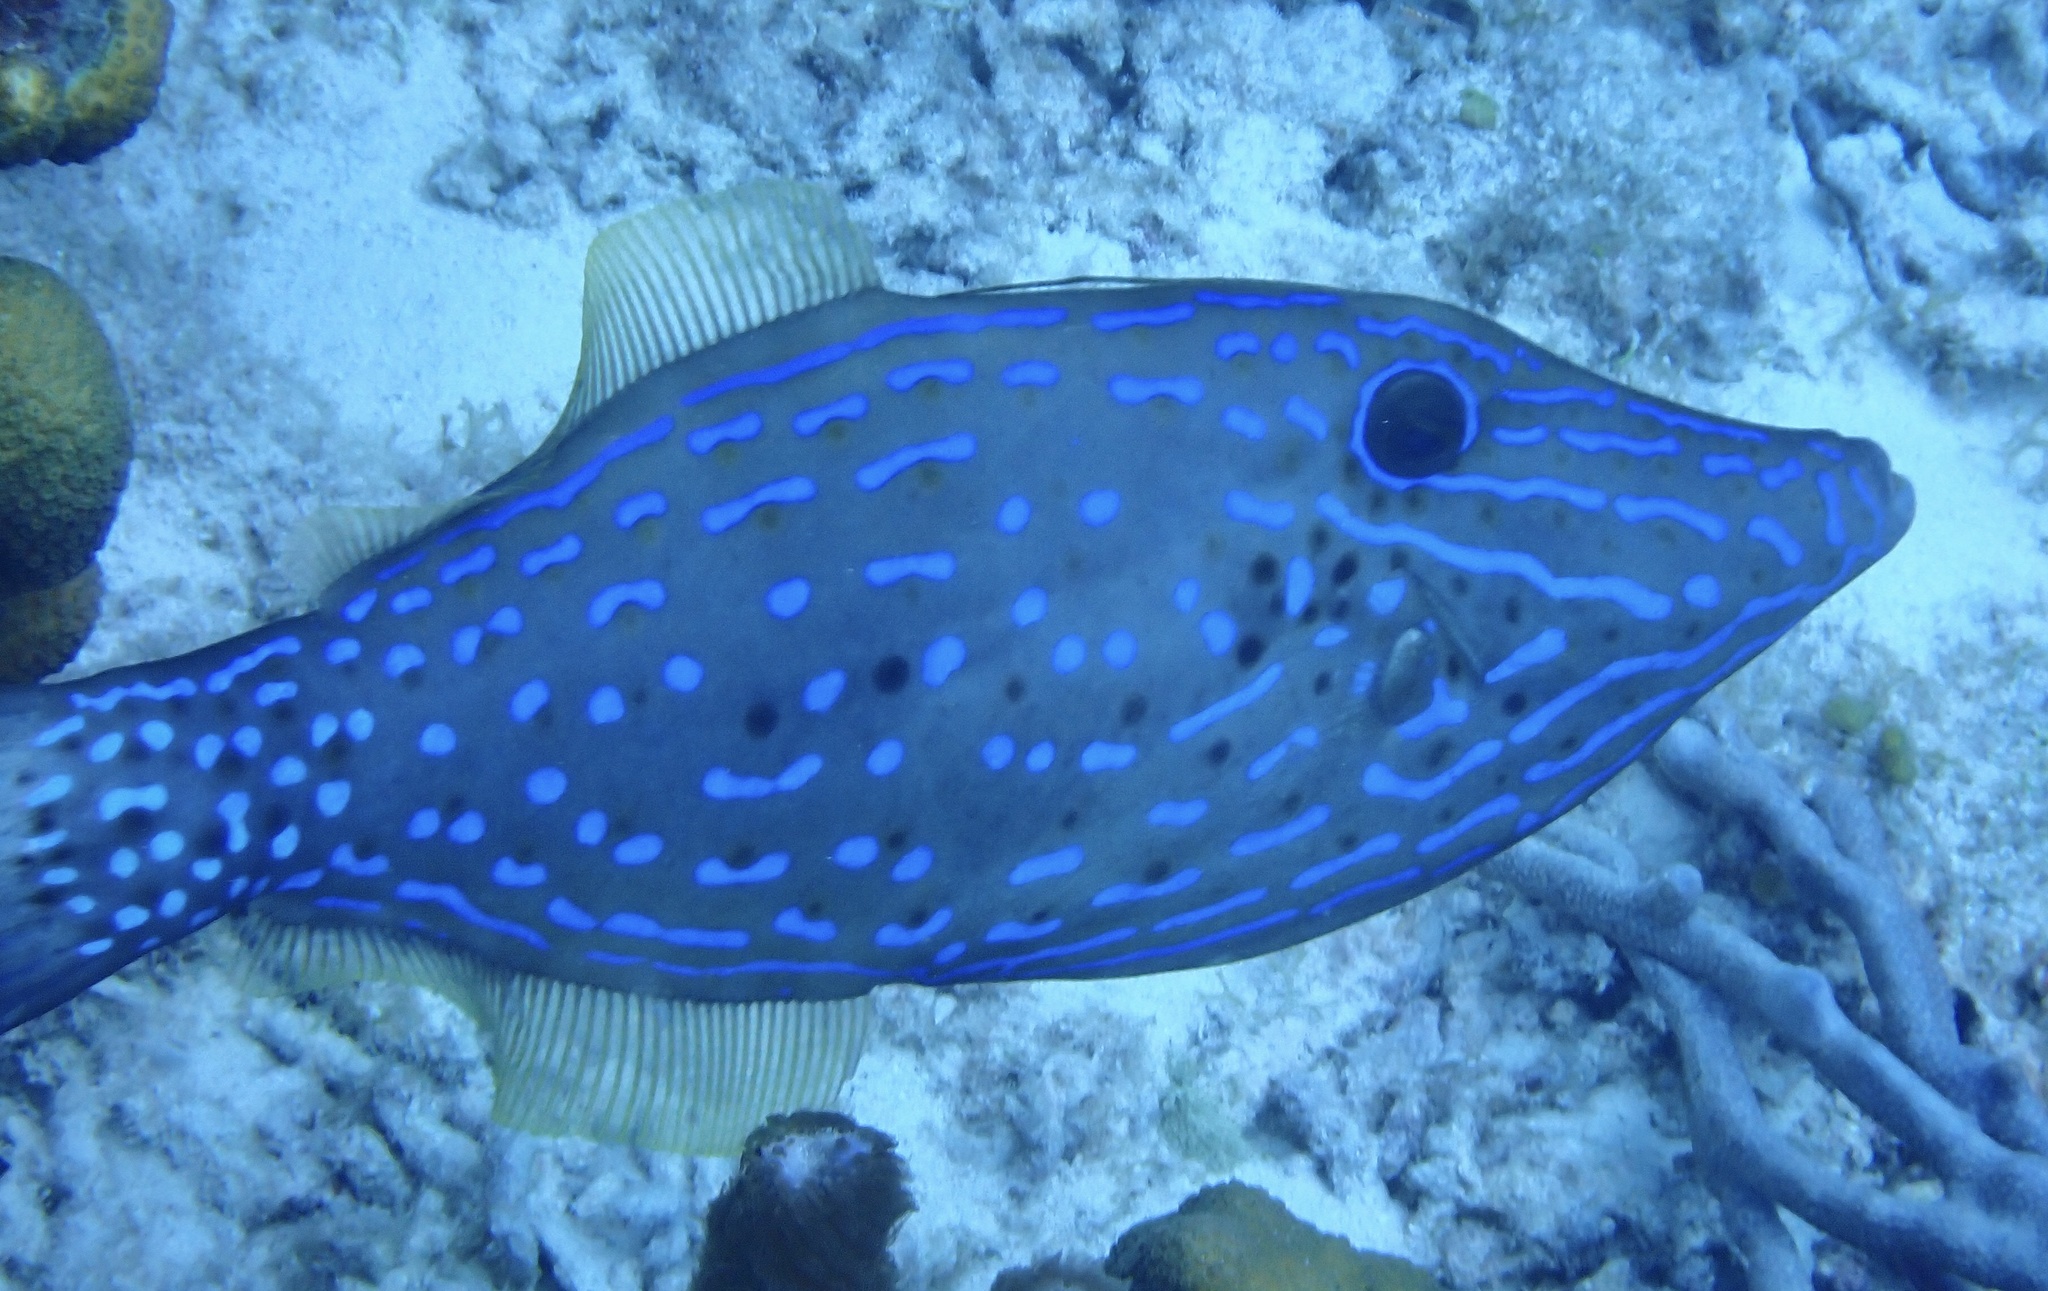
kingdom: Animalia
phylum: Chordata
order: Tetraodontiformes
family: Monacanthidae
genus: Aluterus
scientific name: Aluterus scriptus
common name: Scribbled leatherjacket filefish
